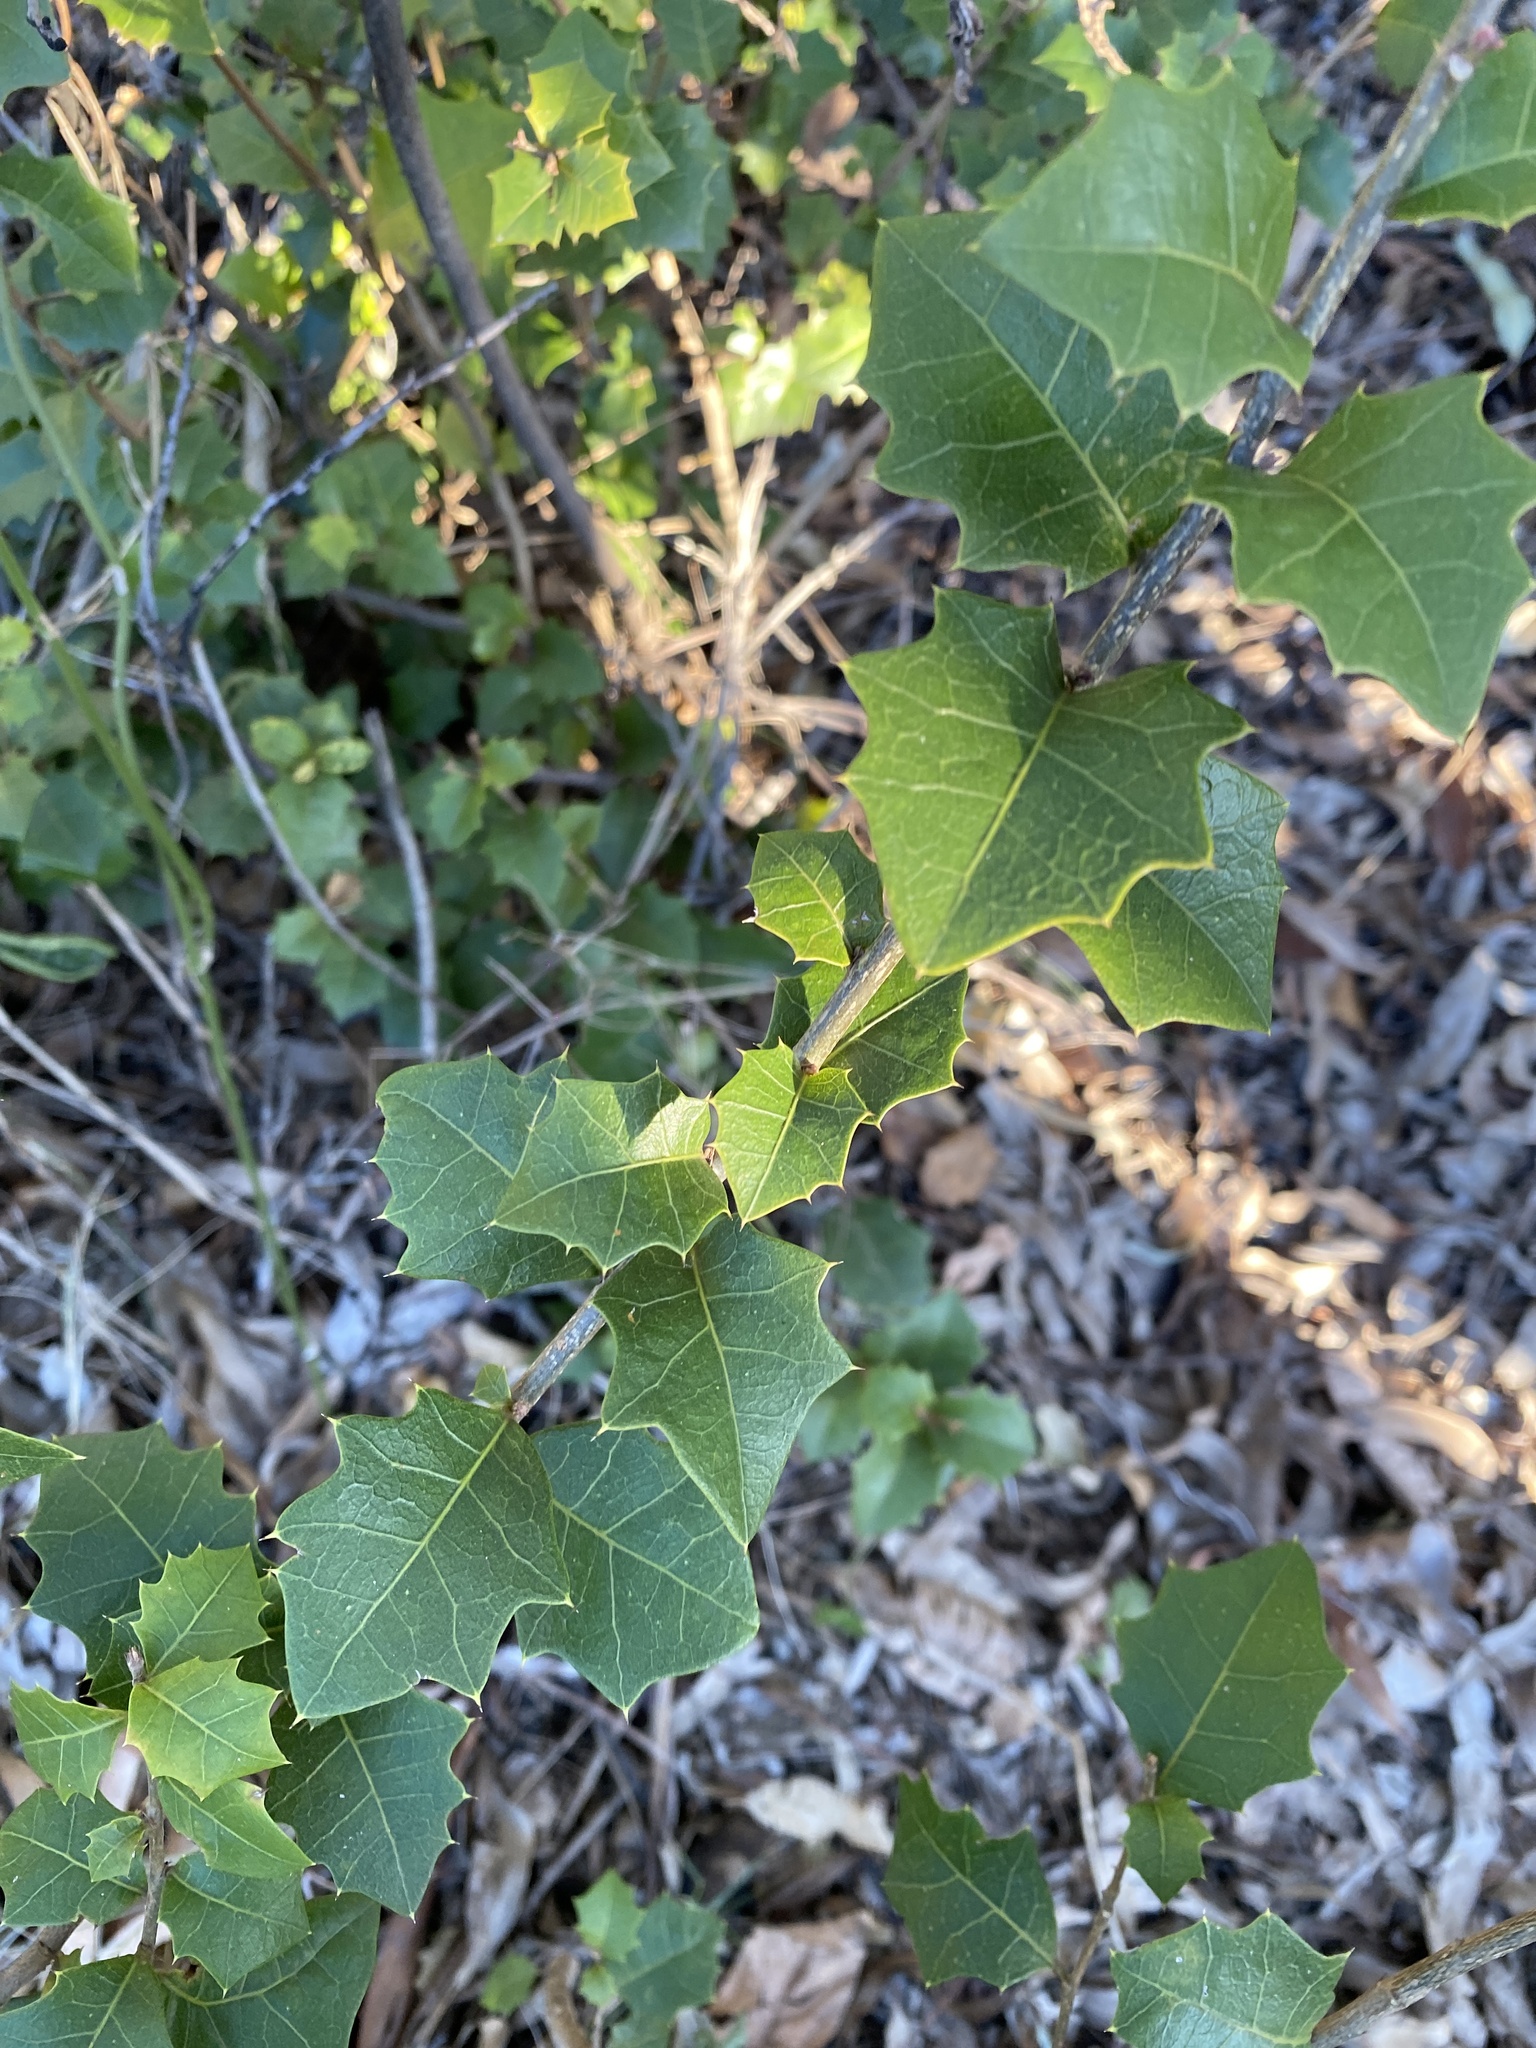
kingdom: Plantae
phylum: Tracheophyta
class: Magnoliopsida
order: Malpighiales
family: Euphorbiaceae
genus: Alchornea
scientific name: Alchornea ilicifolia
